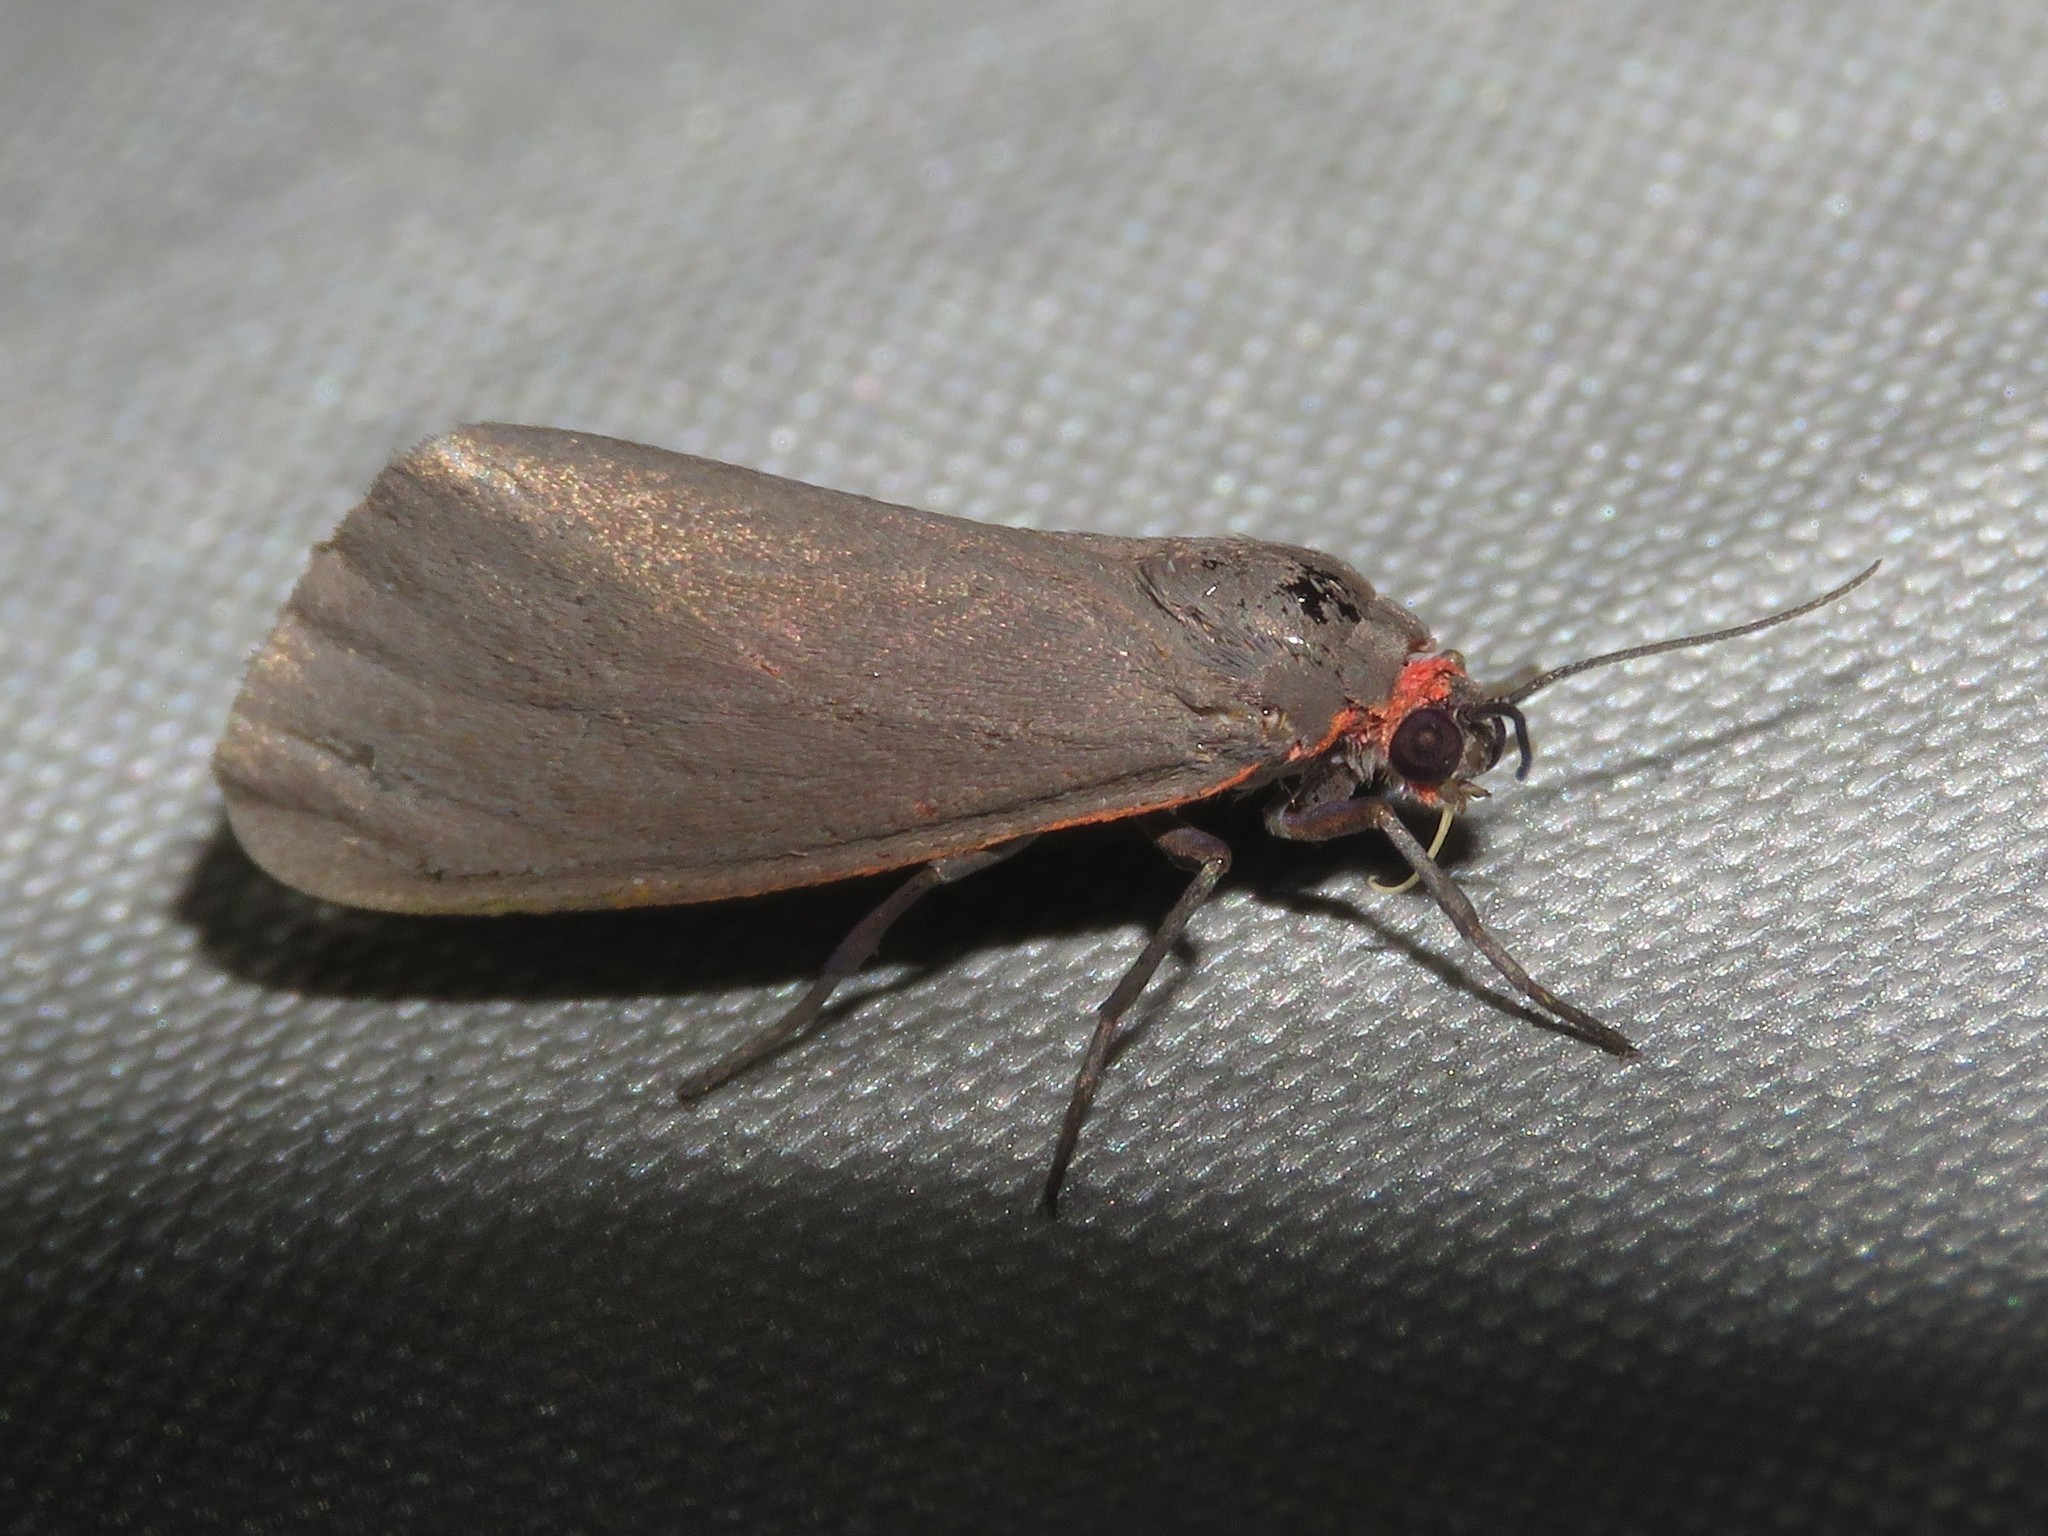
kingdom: Animalia
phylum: Arthropoda
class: Insecta
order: Lepidoptera
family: Erebidae
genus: Virbia
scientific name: Virbia laeta
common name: Joyful holomelina moth
